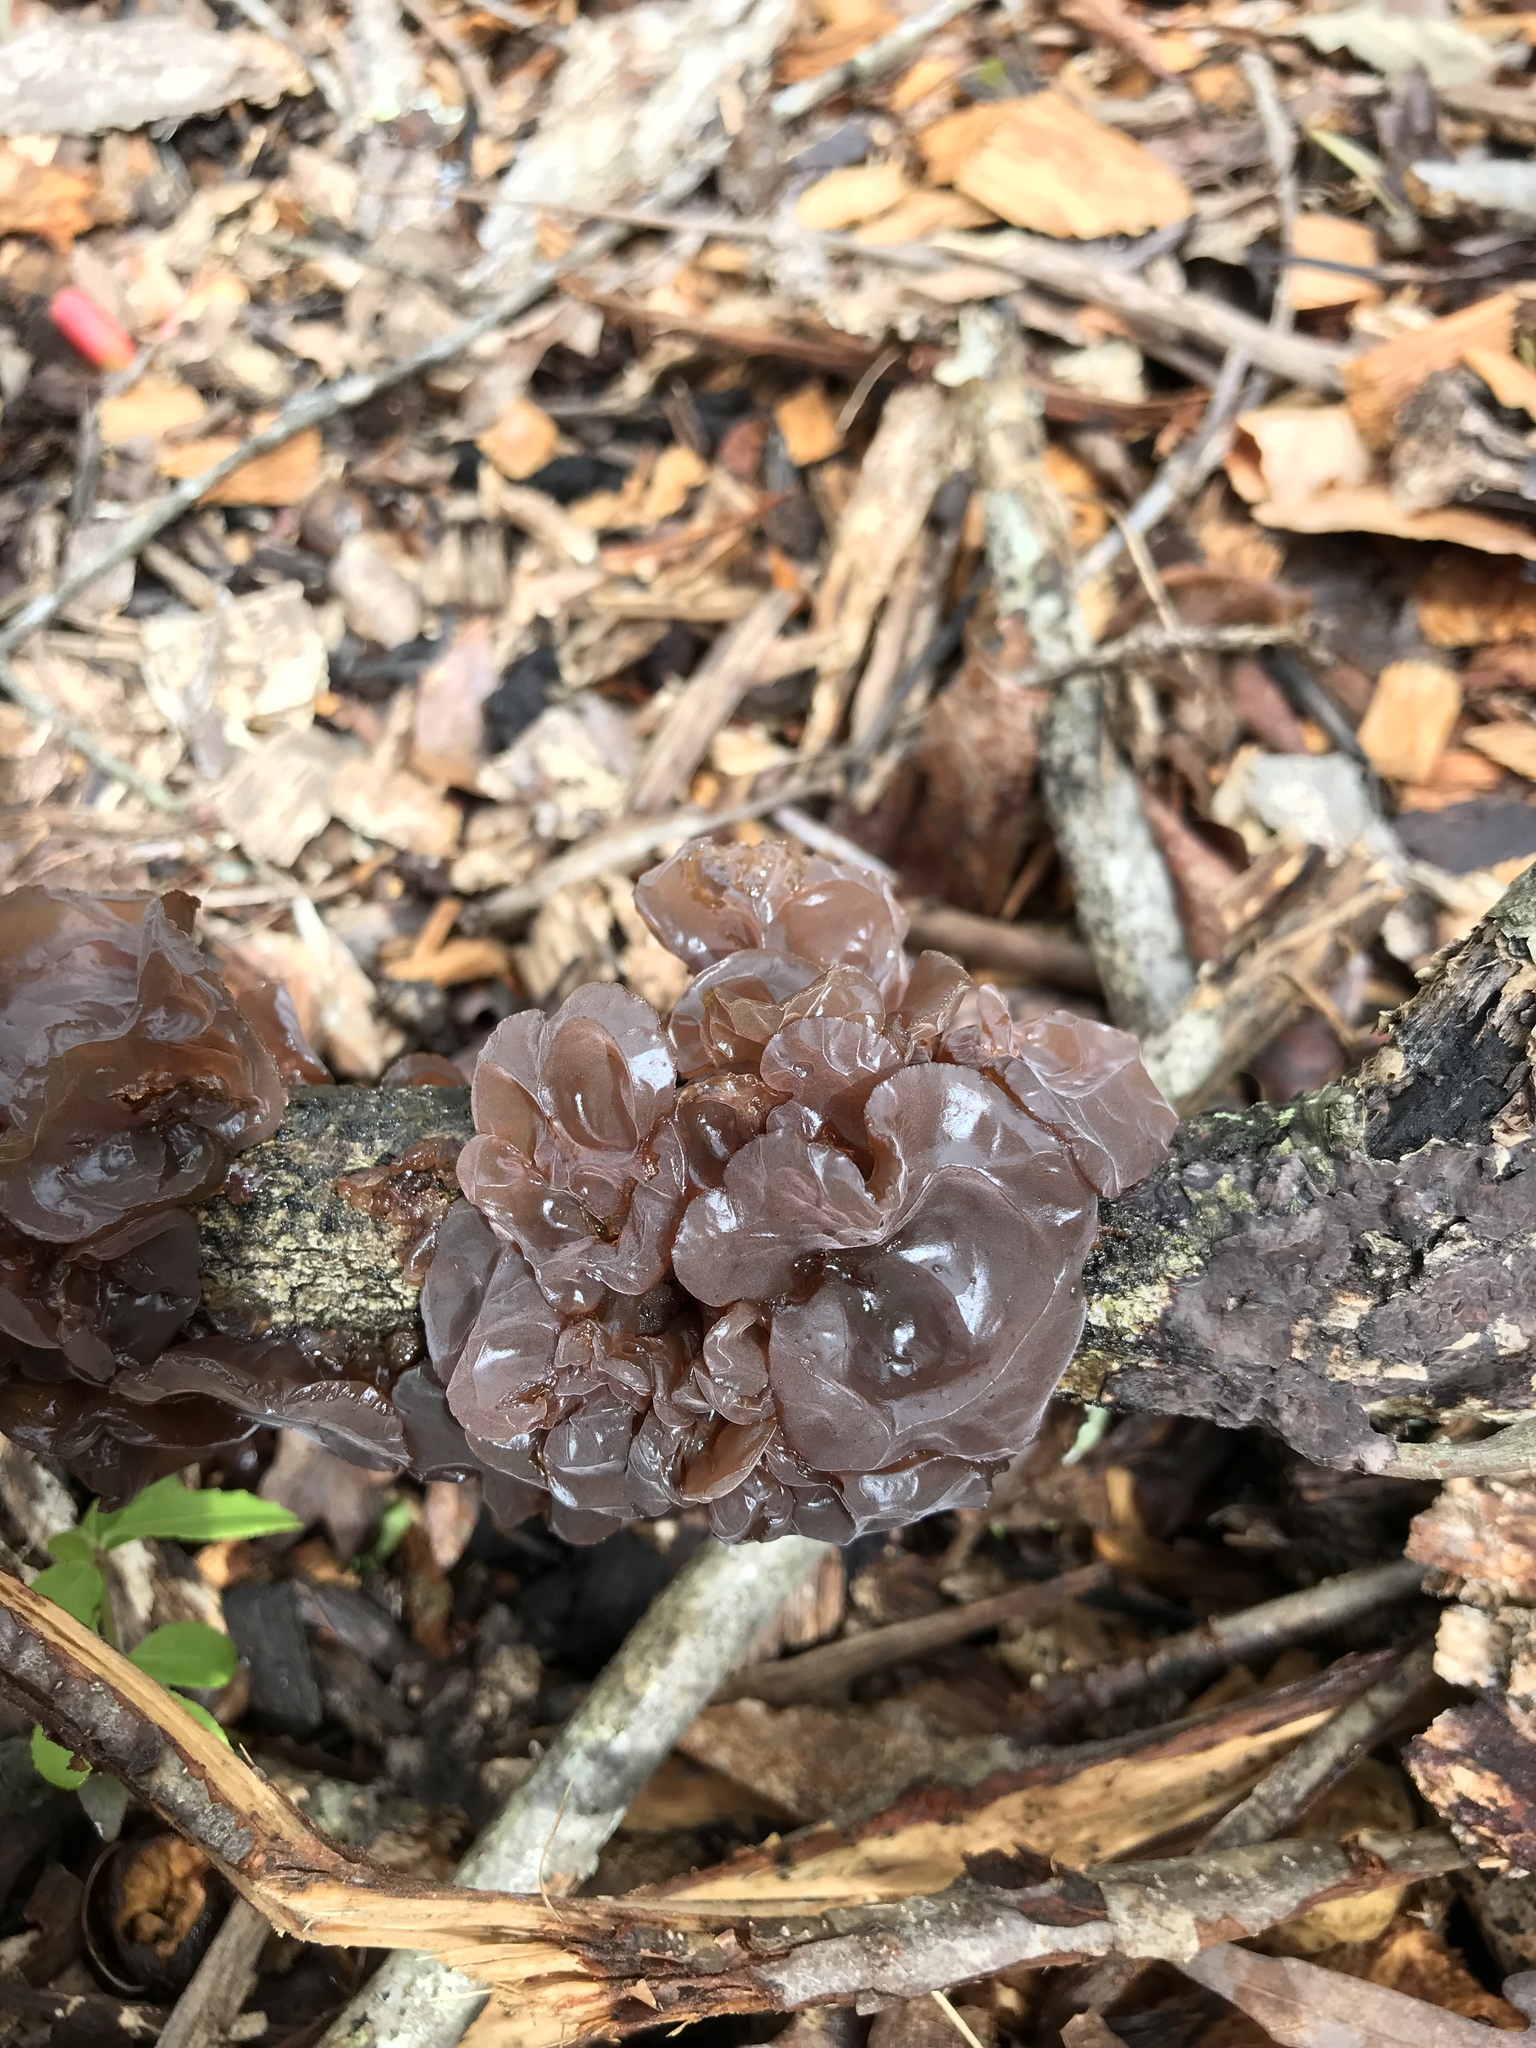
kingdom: Fungi
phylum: Basidiomycota
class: Tremellomycetes
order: Tremellales
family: Tremellaceae
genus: Phaeotremella
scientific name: Phaeotremella foliacea
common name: Leafy brain
